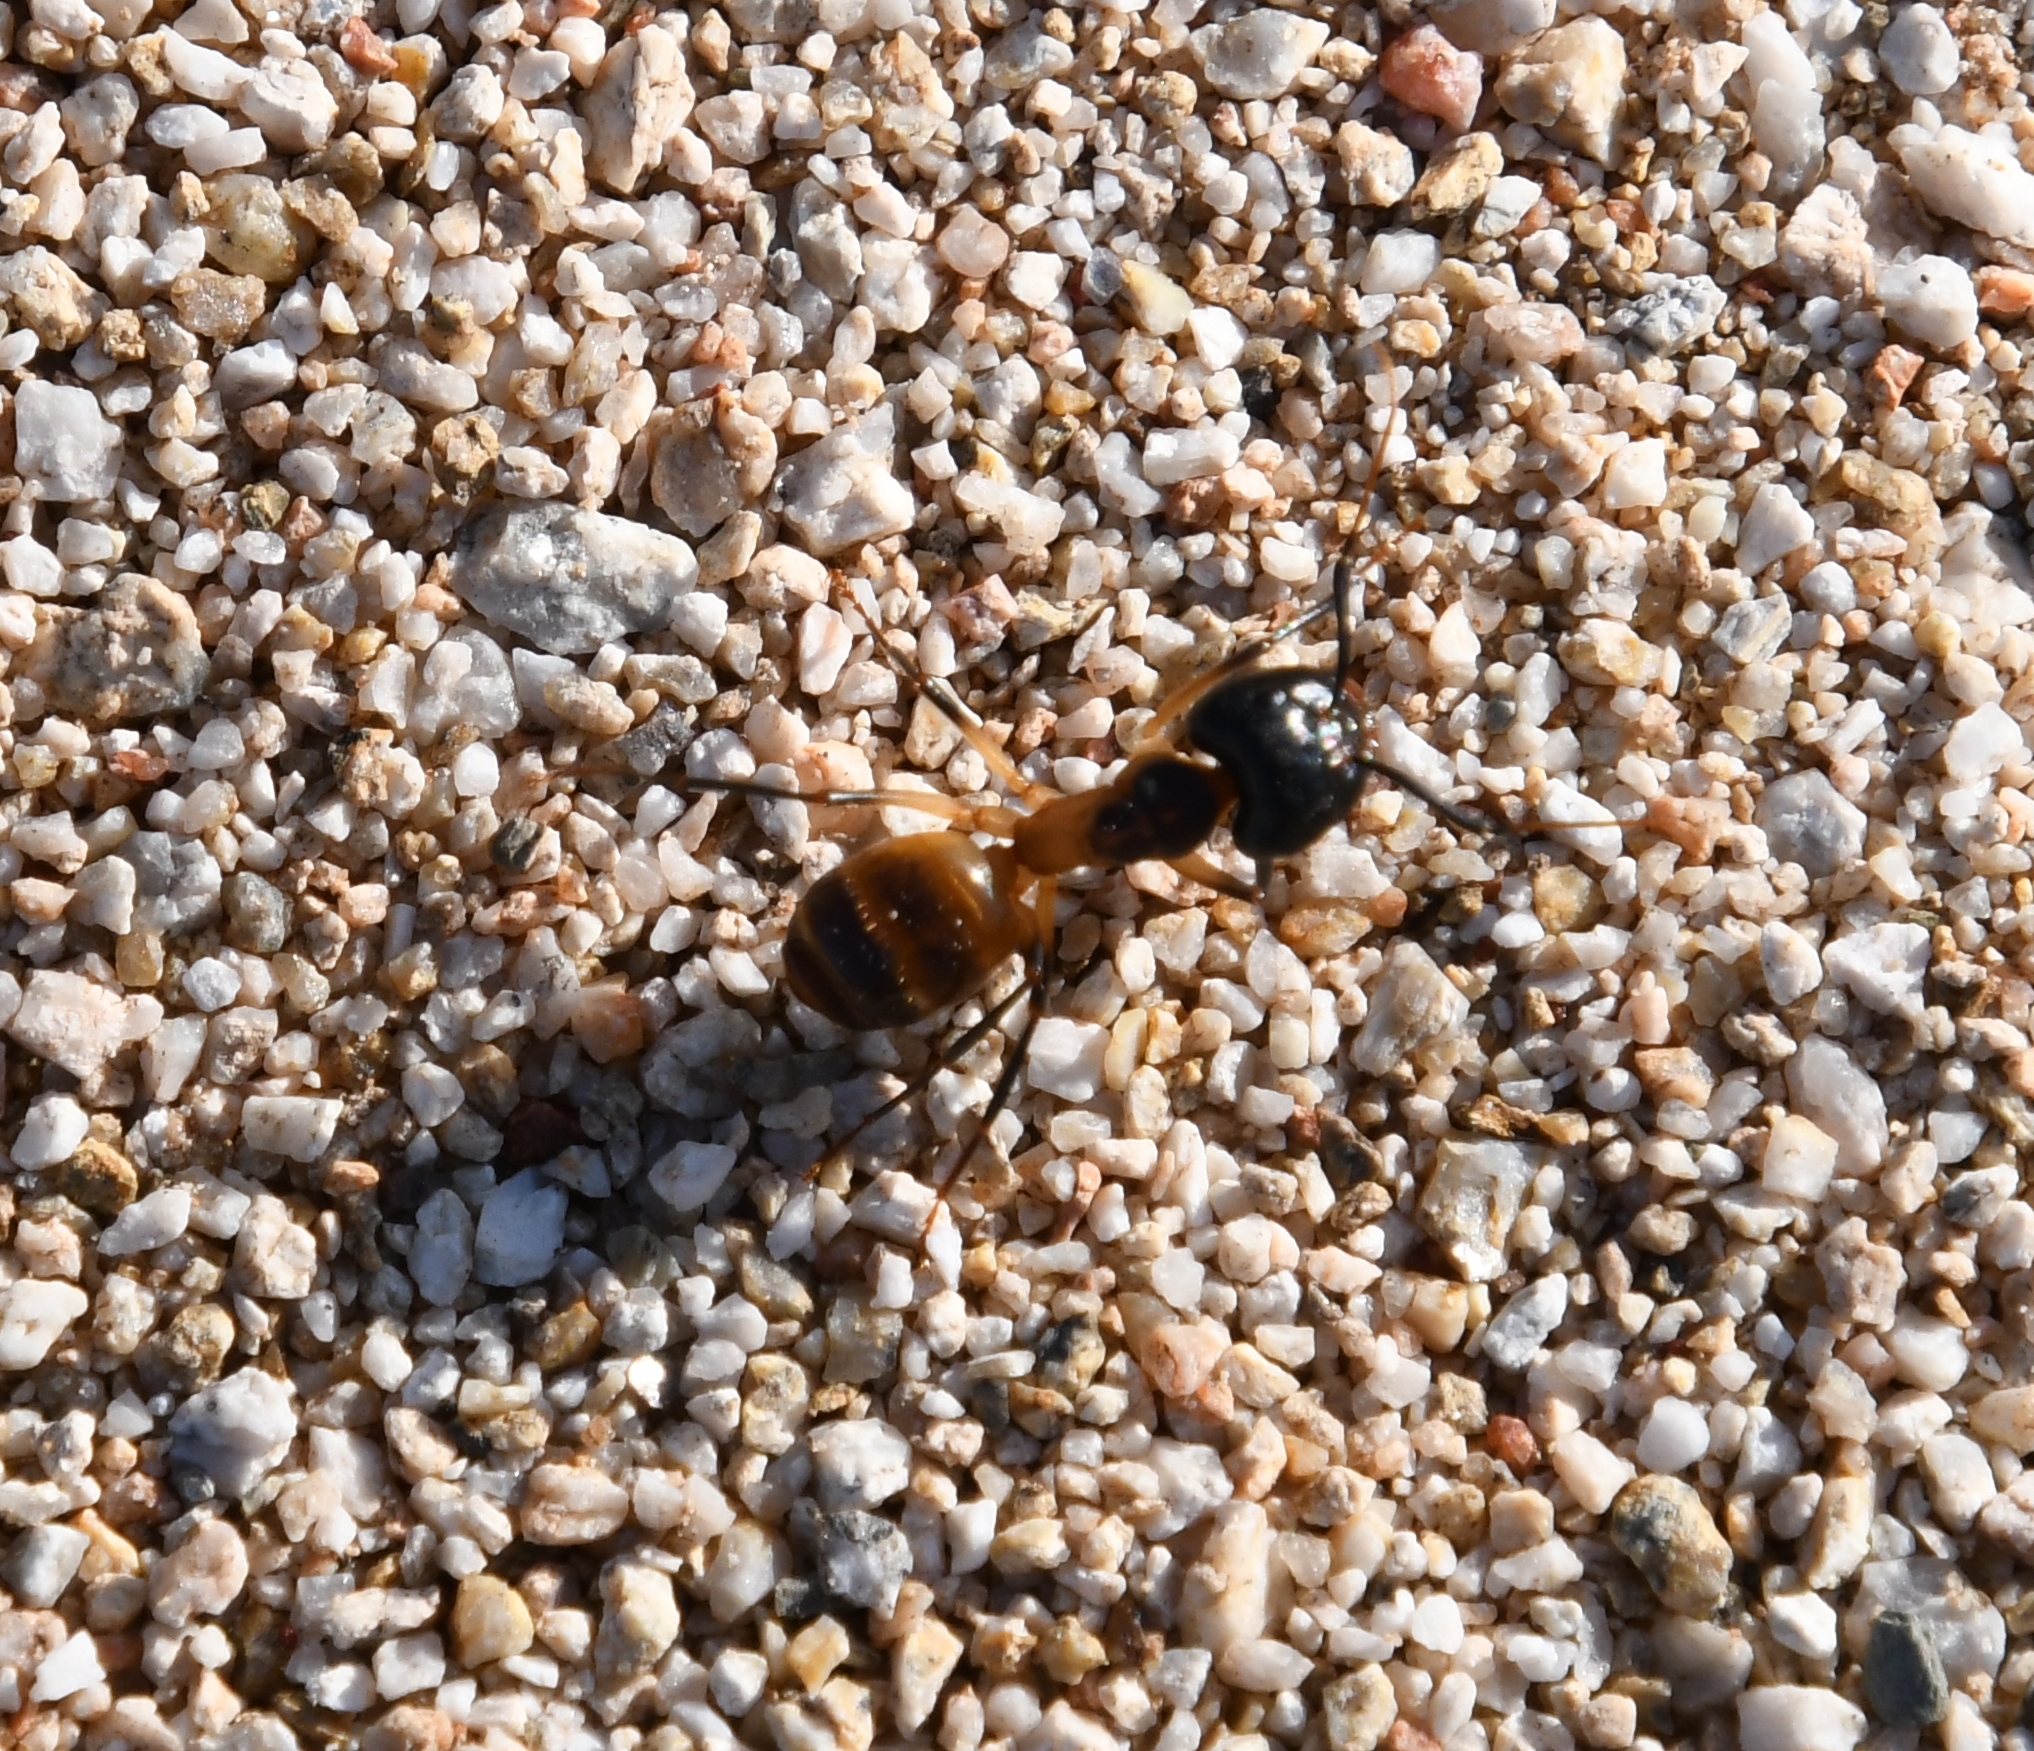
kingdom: Animalia
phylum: Arthropoda
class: Insecta
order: Hymenoptera
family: Formicidae
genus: Camponotus
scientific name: Camponotus ocreatus
